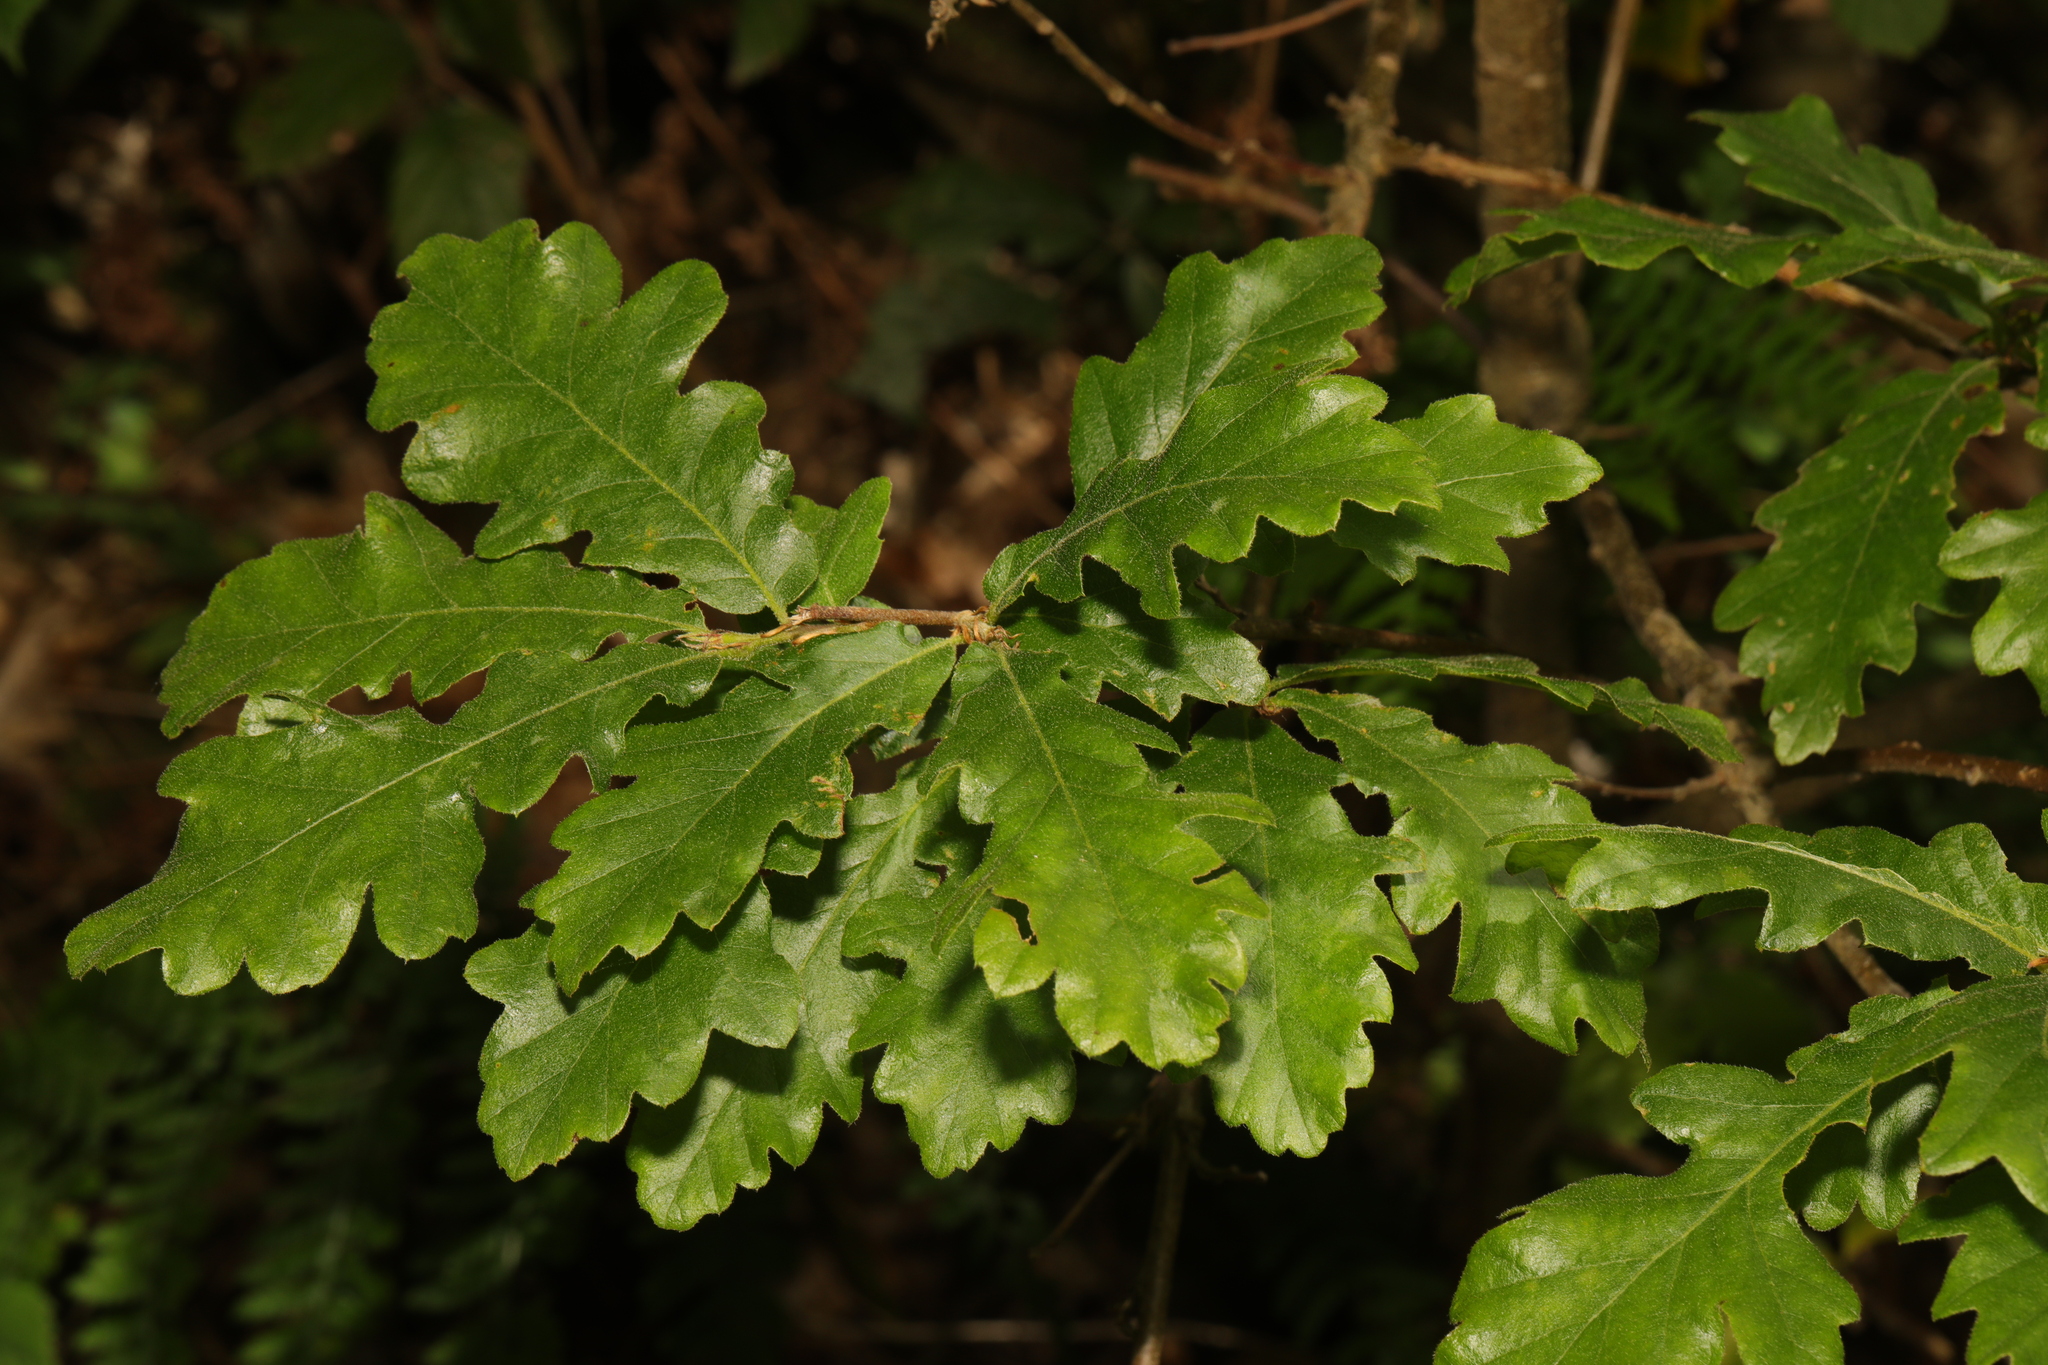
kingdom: Plantae
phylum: Tracheophyta
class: Magnoliopsida
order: Fagales
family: Fagaceae
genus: Quercus
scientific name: Quercus robur
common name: Pedunculate oak
